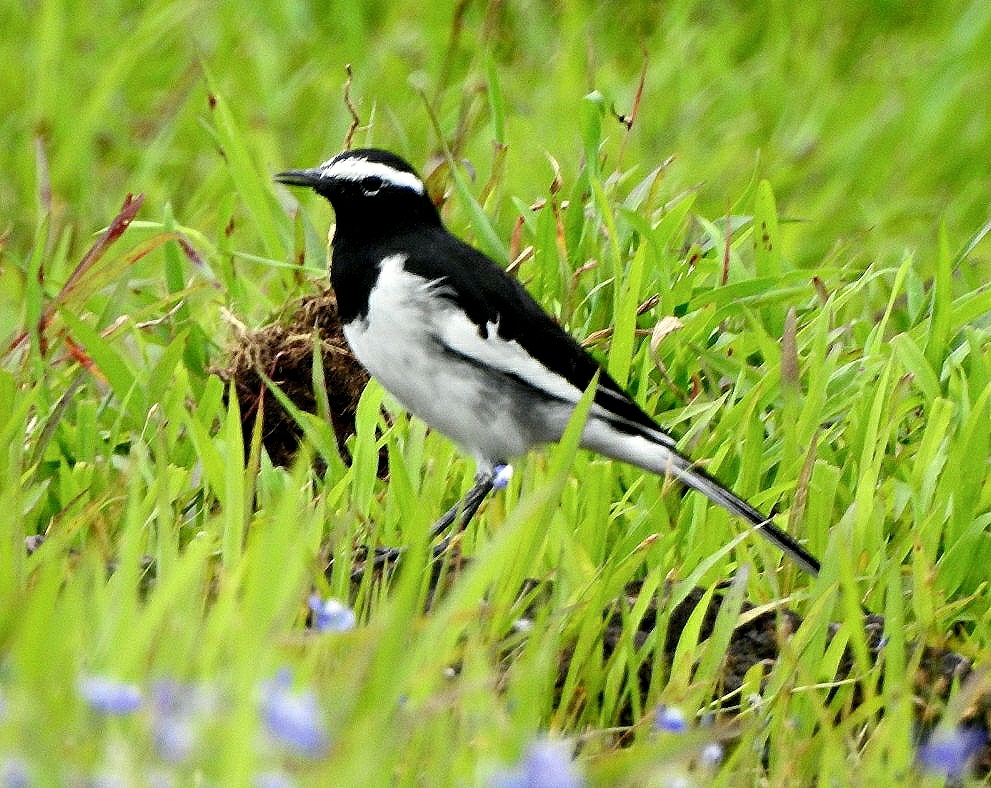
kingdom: Animalia
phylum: Chordata
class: Aves
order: Passeriformes
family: Motacillidae
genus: Motacilla
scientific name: Motacilla maderaspatensis
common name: White-browed wagtail
